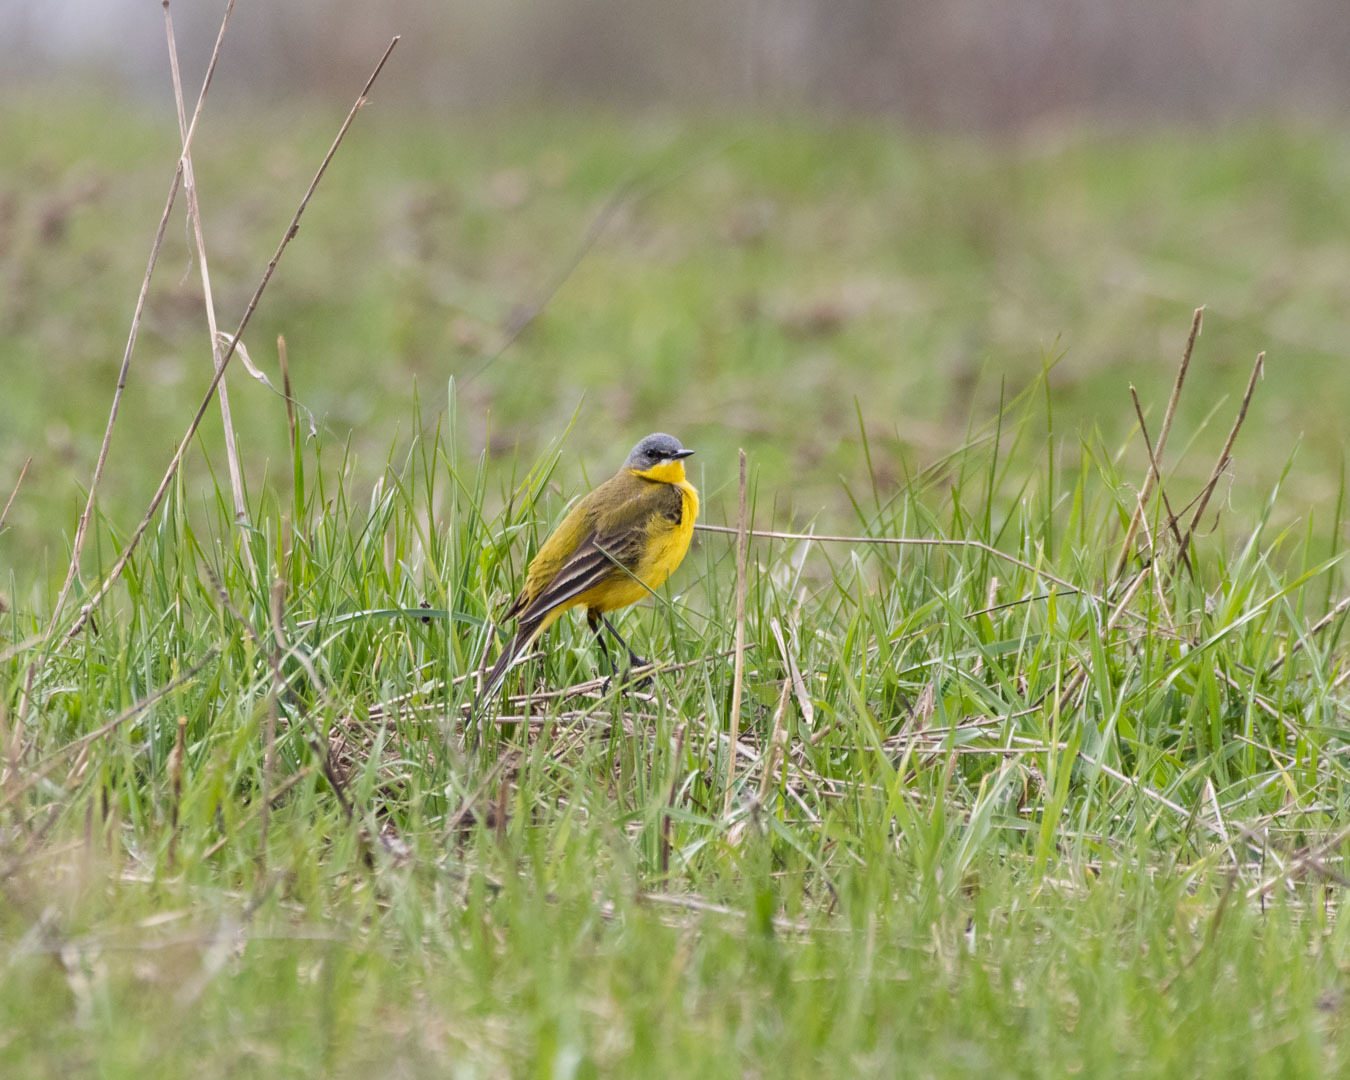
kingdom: Animalia
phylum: Chordata
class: Aves
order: Passeriformes
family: Motacillidae
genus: Motacilla
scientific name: Motacilla flava
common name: Western yellow wagtail
